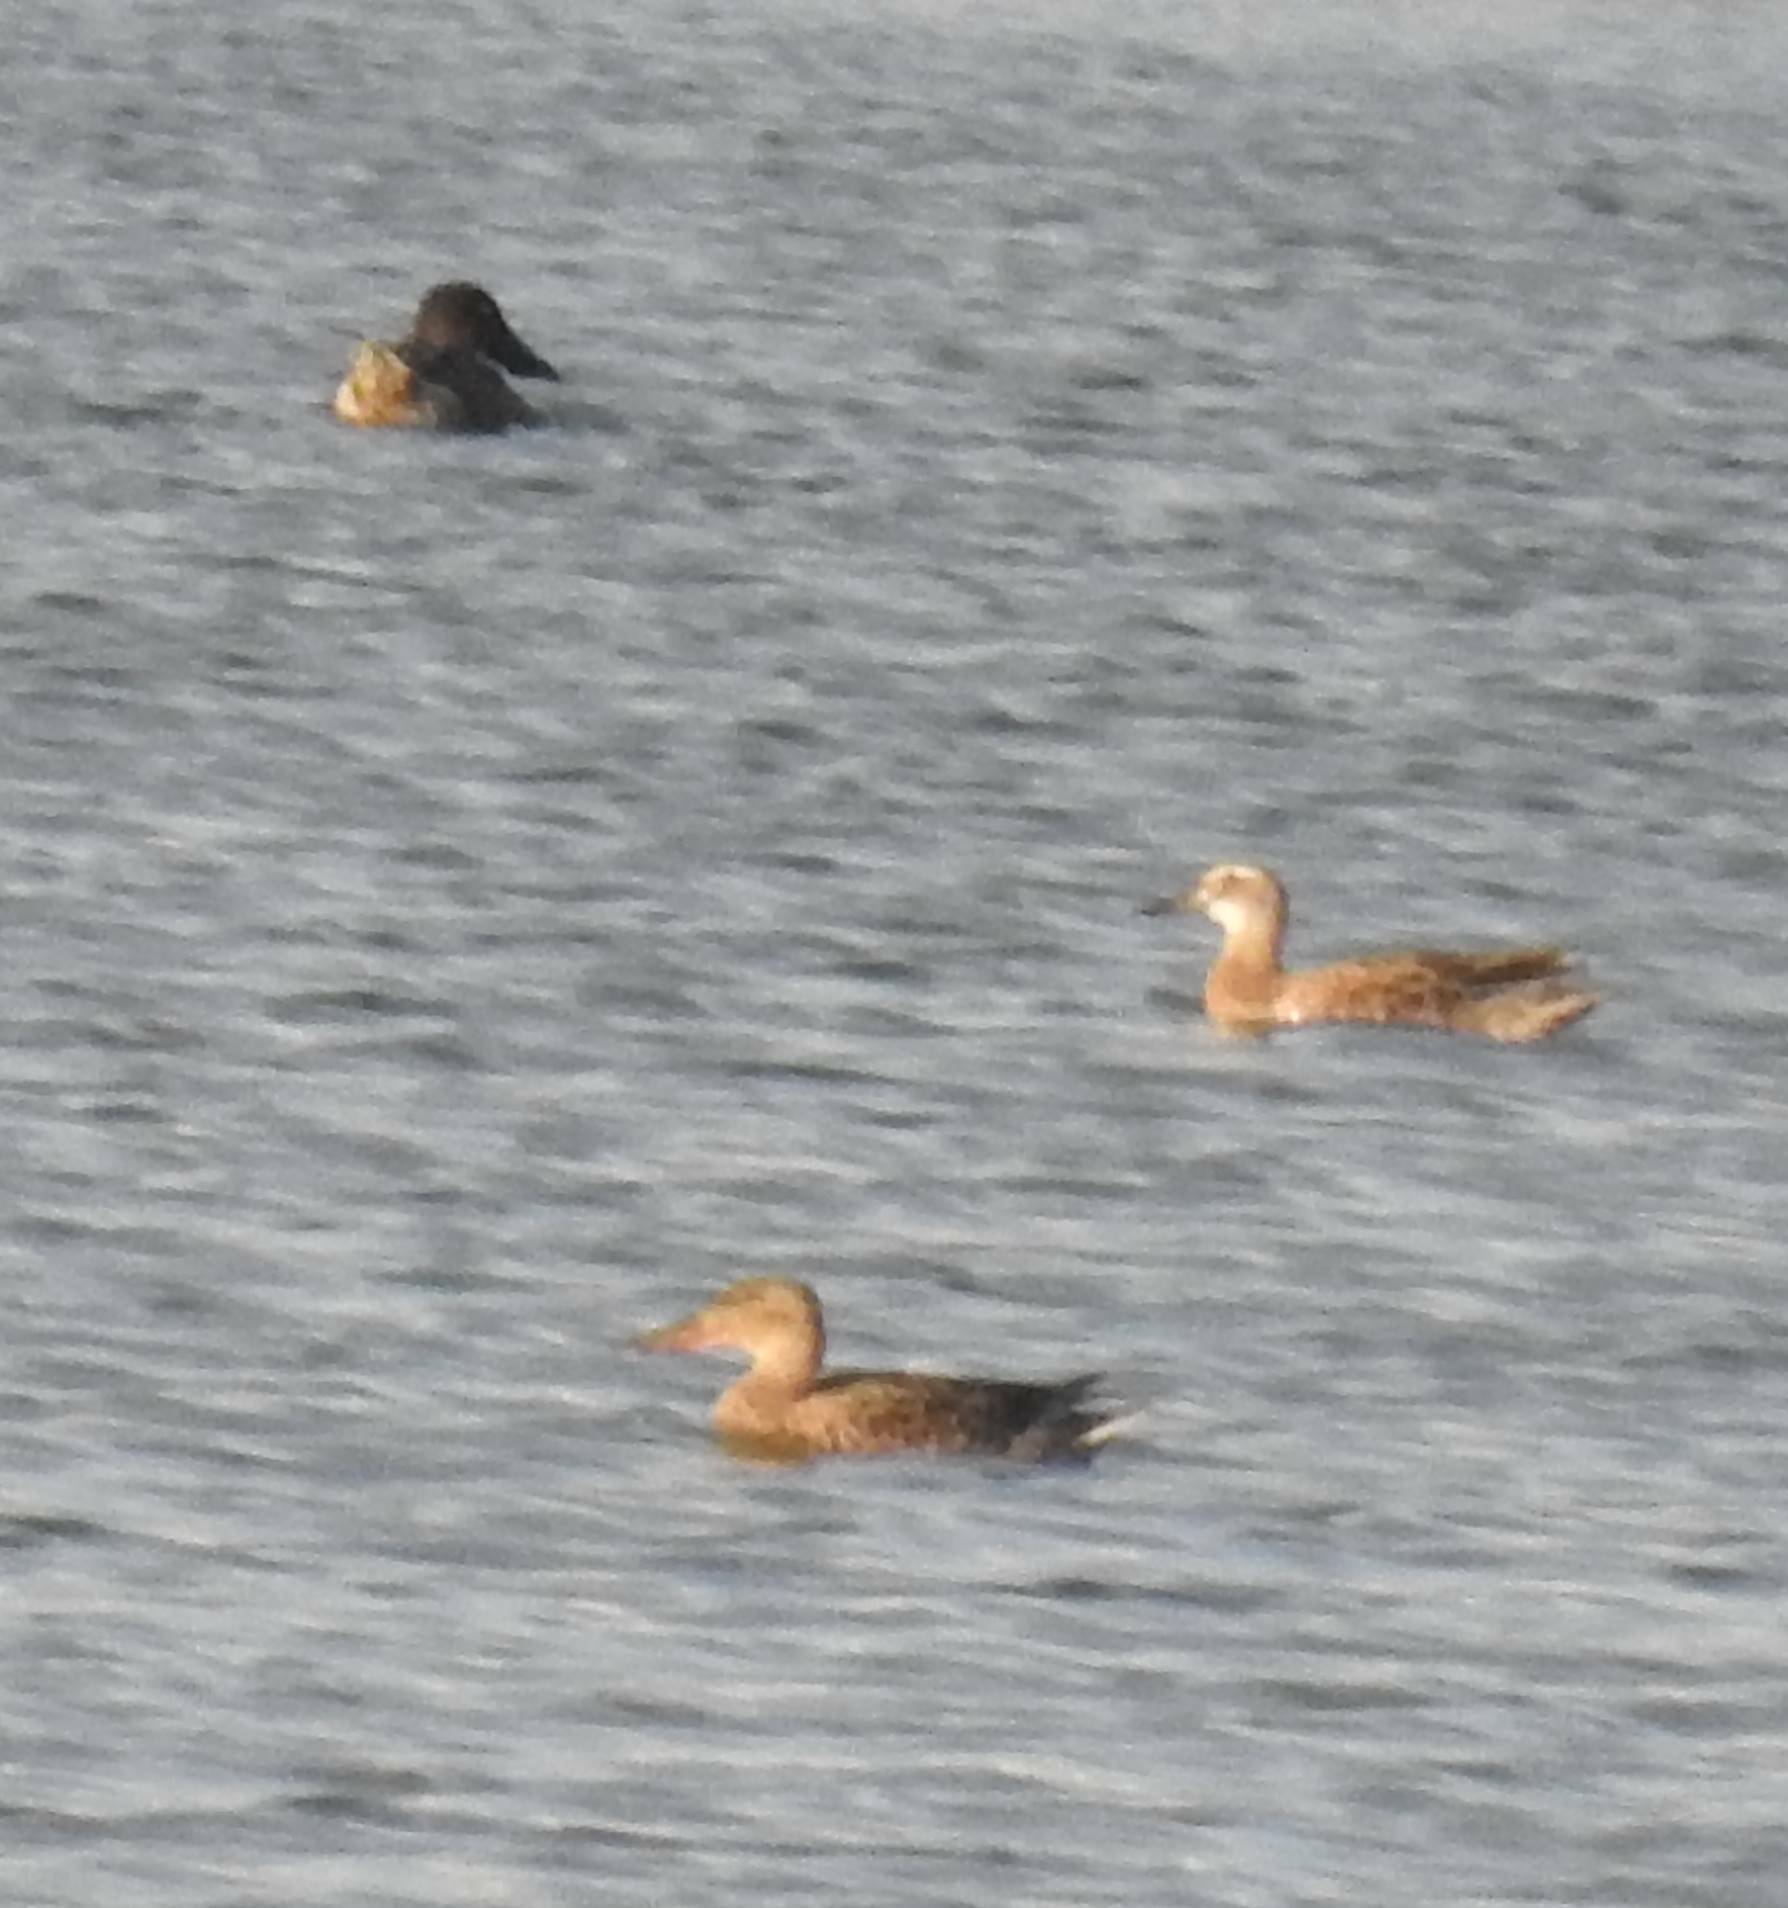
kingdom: Animalia
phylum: Chordata
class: Aves
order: Anseriformes
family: Anatidae
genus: Spatula
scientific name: Spatula clypeata
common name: Northern shoveler
